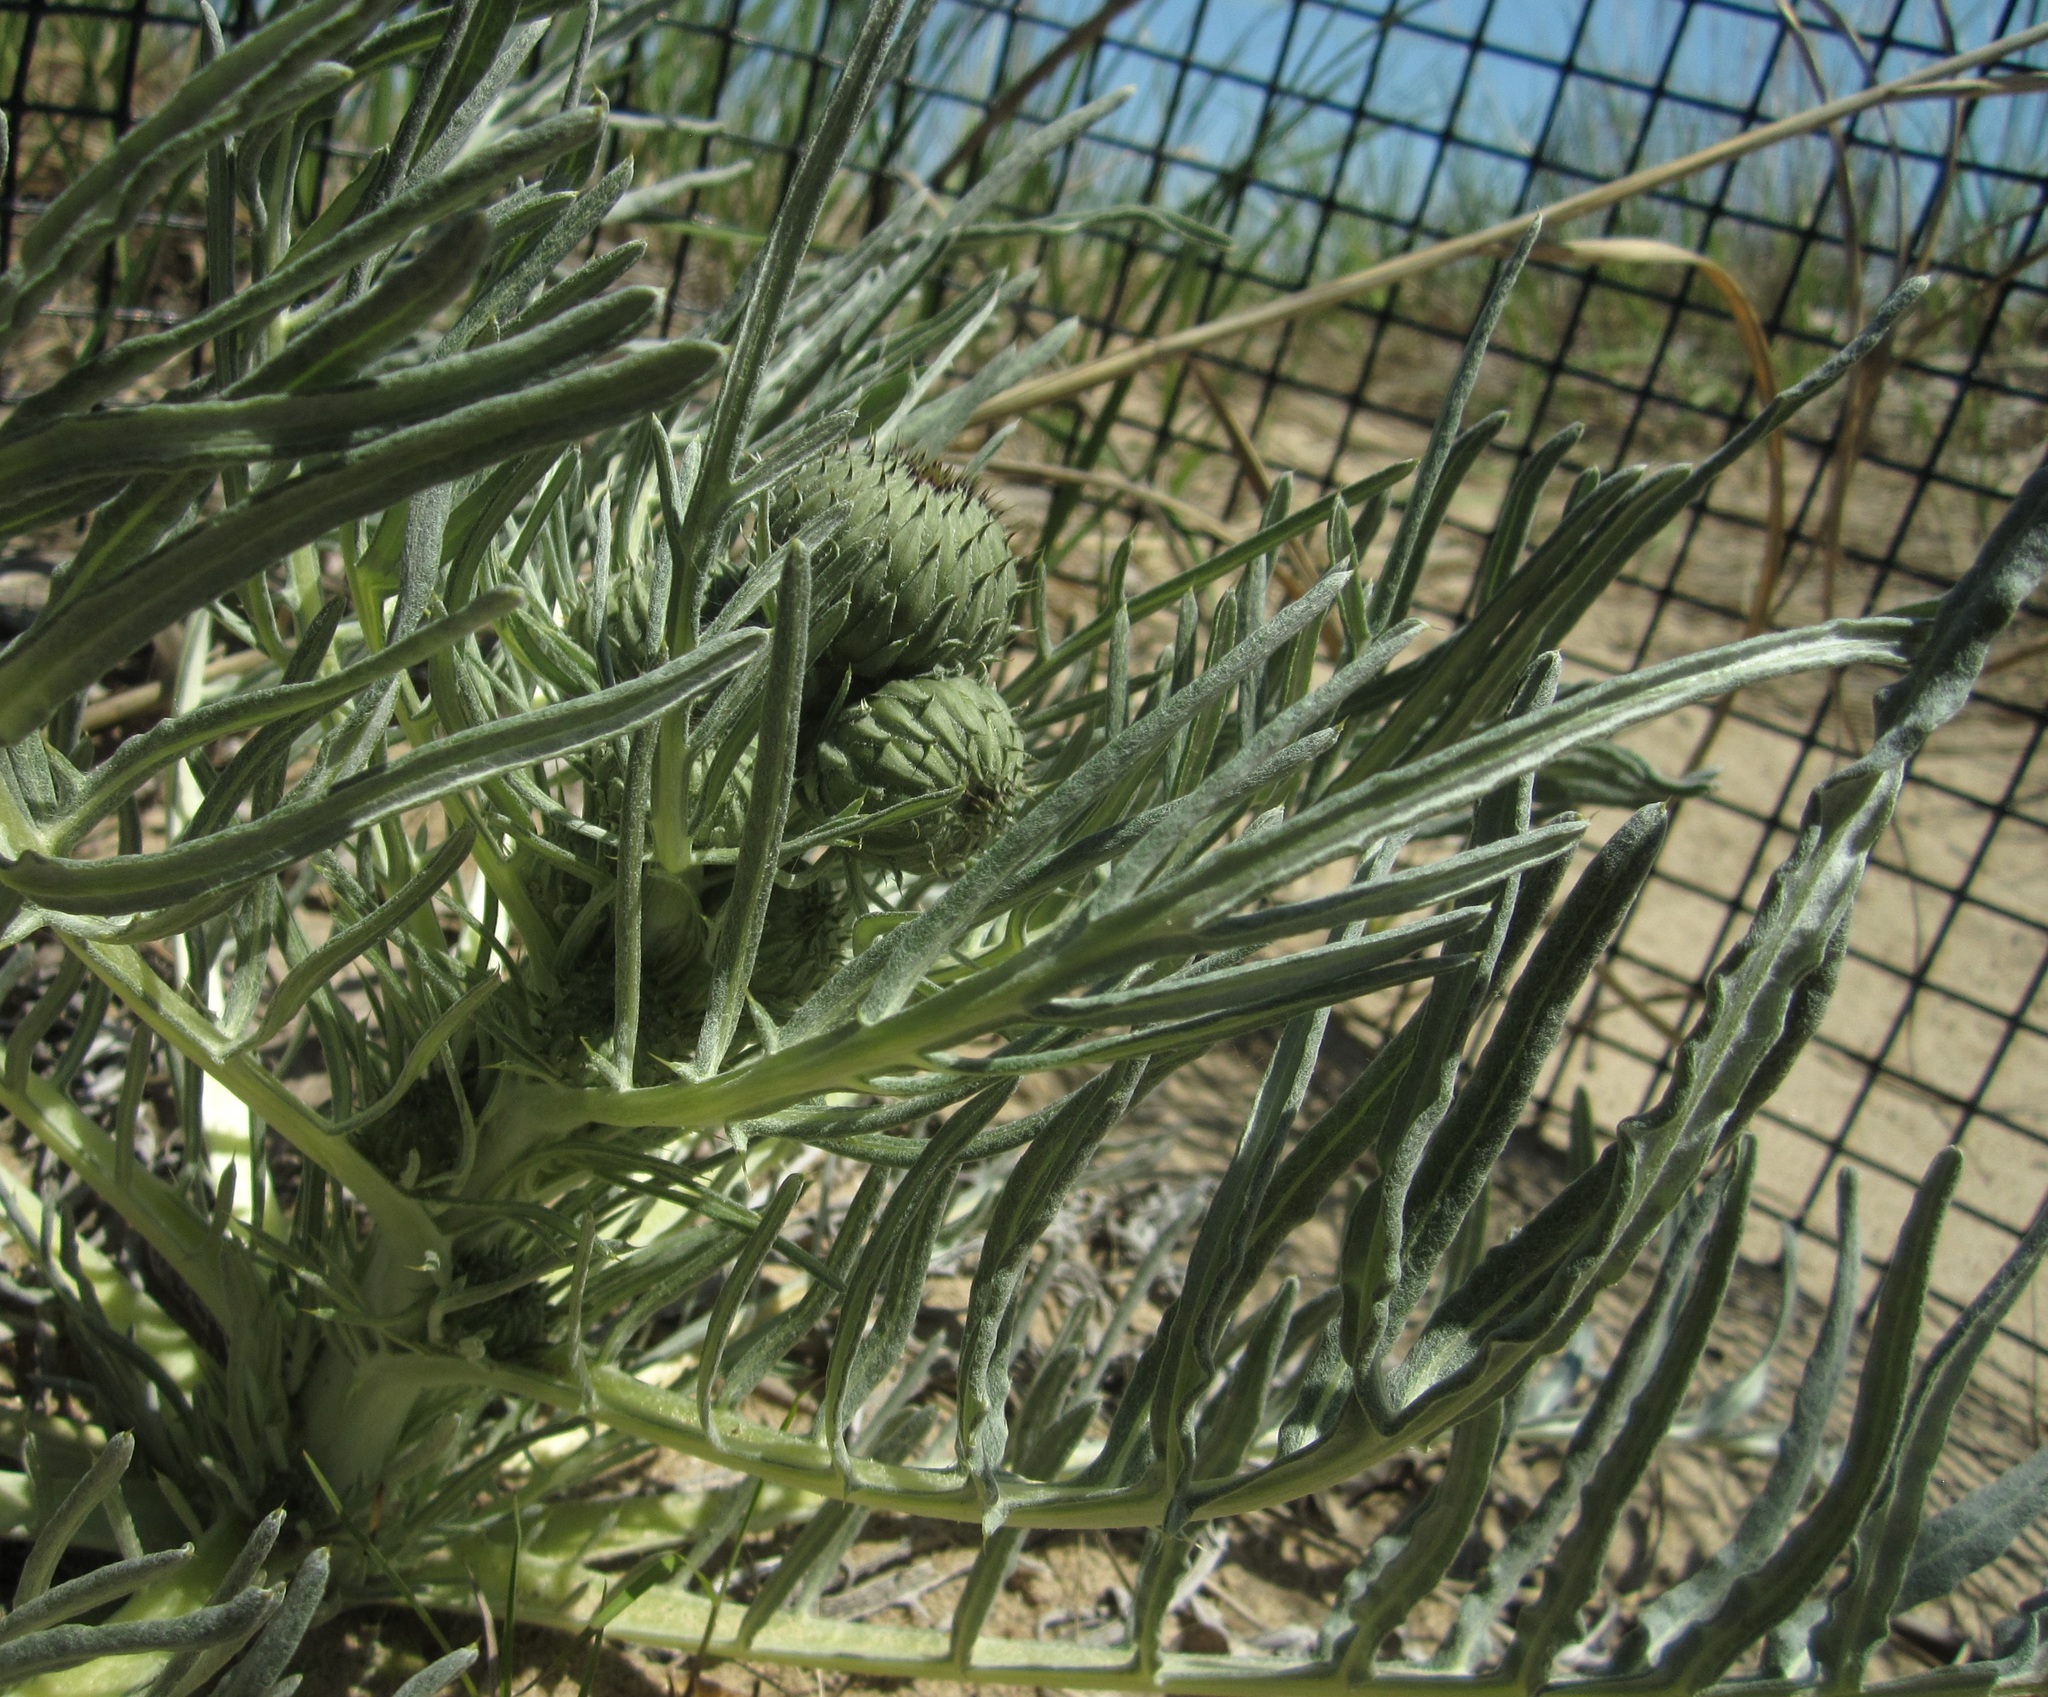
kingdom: Plantae
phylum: Tracheophyta
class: Magnoliopsida
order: Asterales
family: Asteraceae
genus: Cirsium
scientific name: Cirsium pitcheri
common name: Dune thistle
